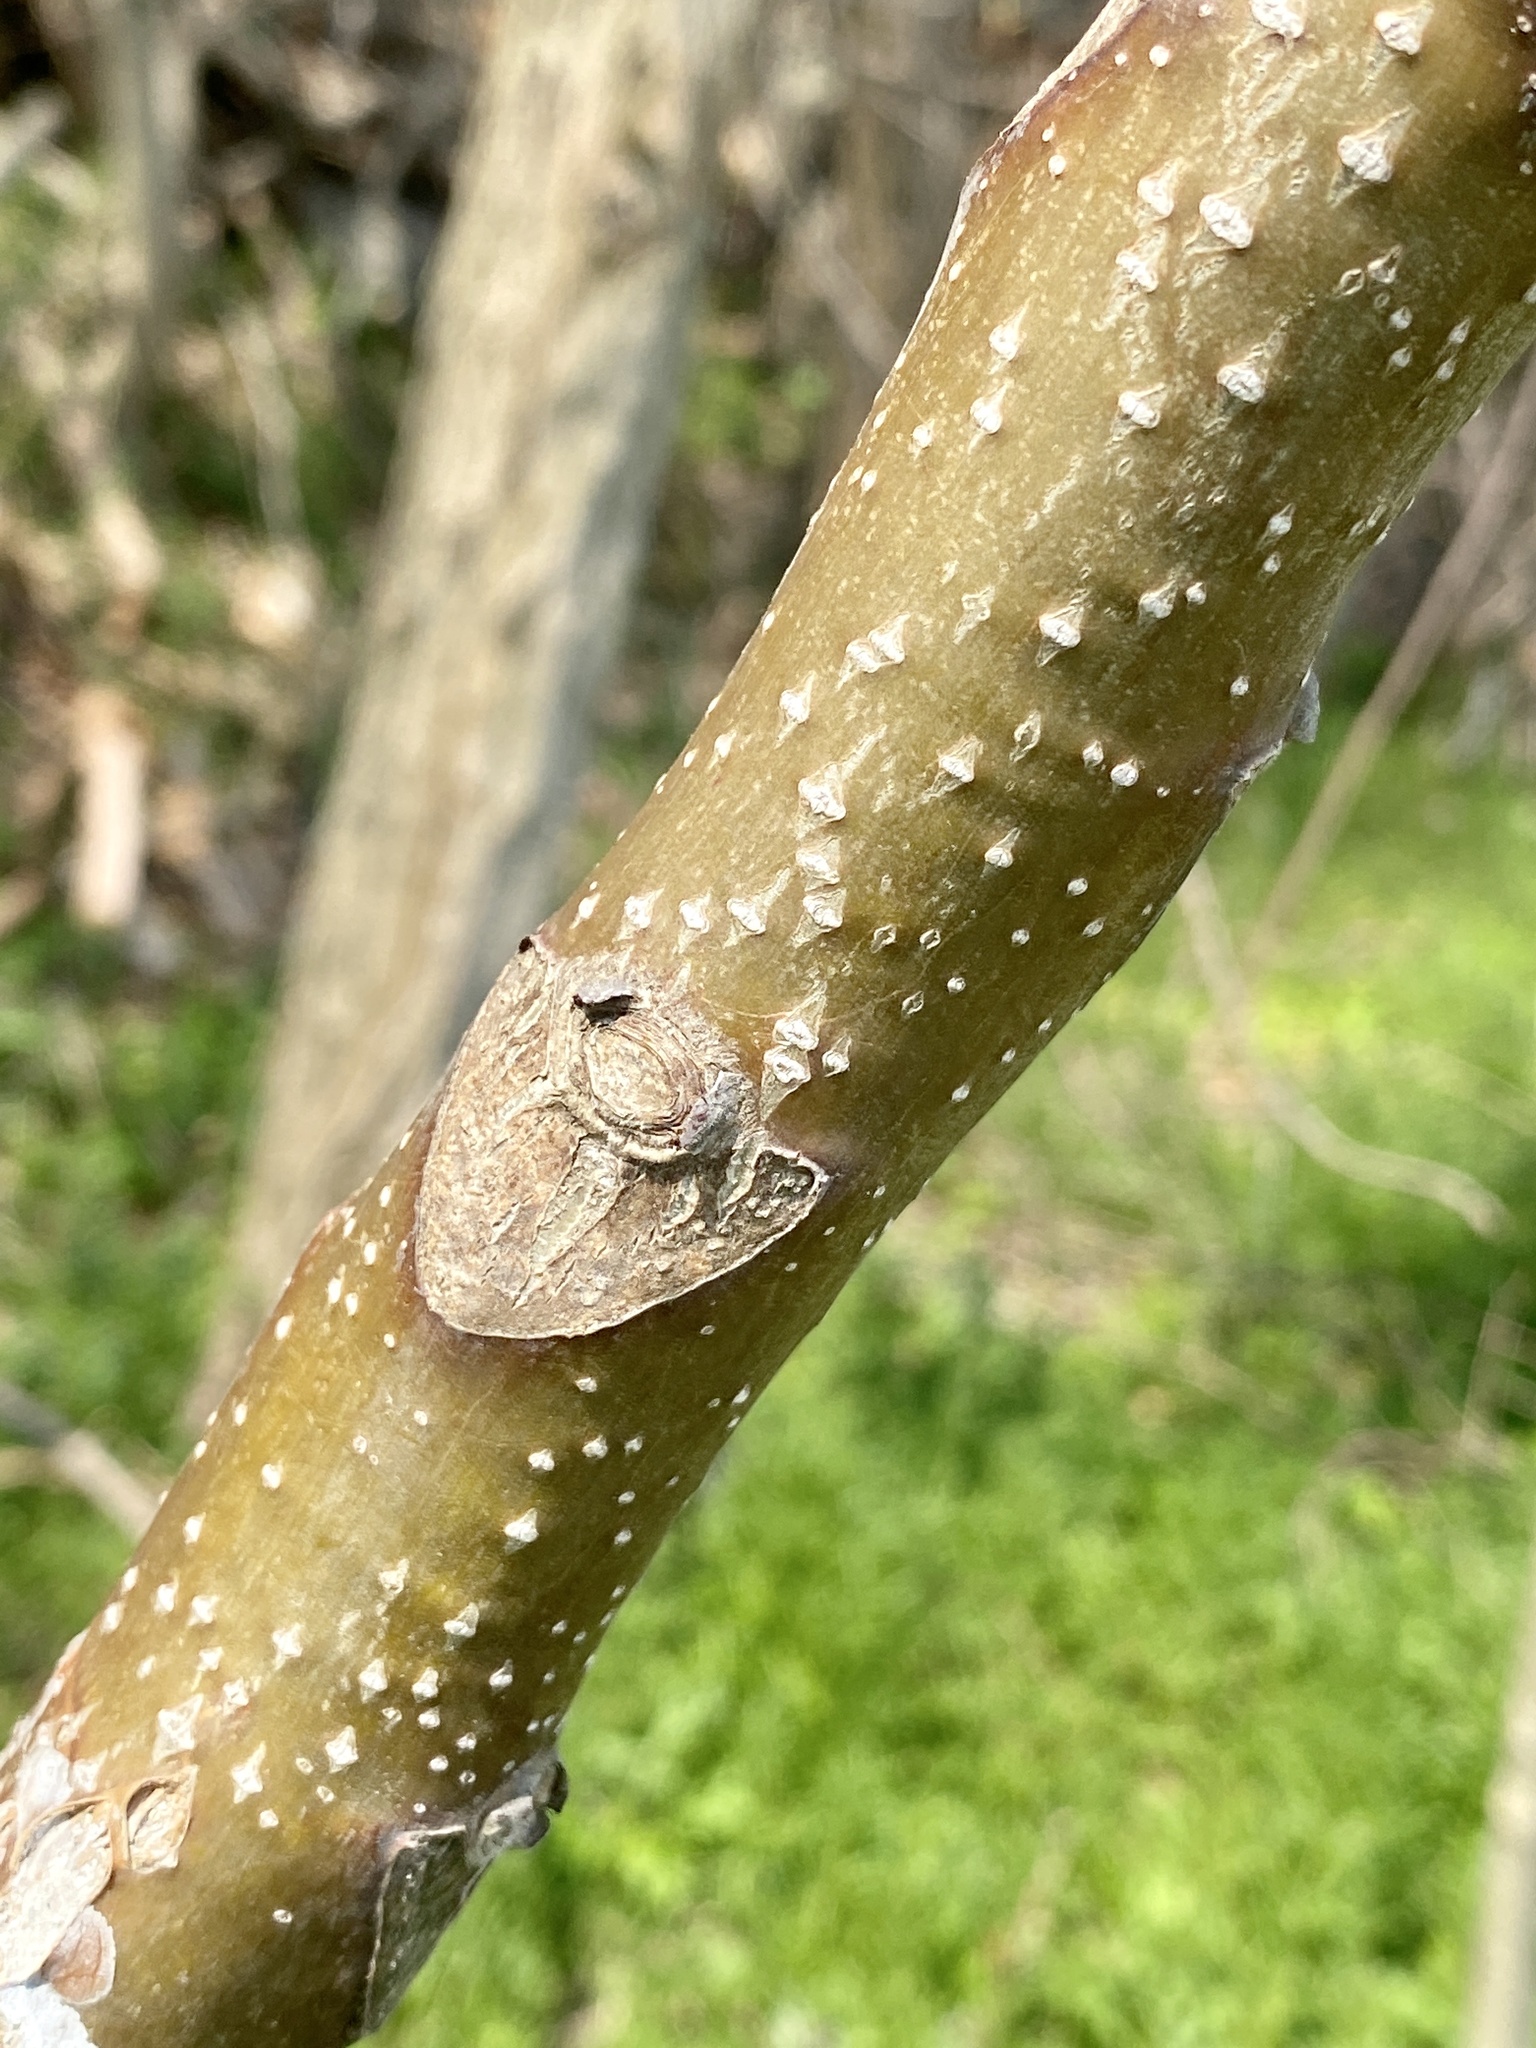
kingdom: Plantae
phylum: Tracheophyta
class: Magnoliopsida
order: Sapindales
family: Simaroubaceae
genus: Ailanthus
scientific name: Ailanthus altissima
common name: Tree-of-heaven
